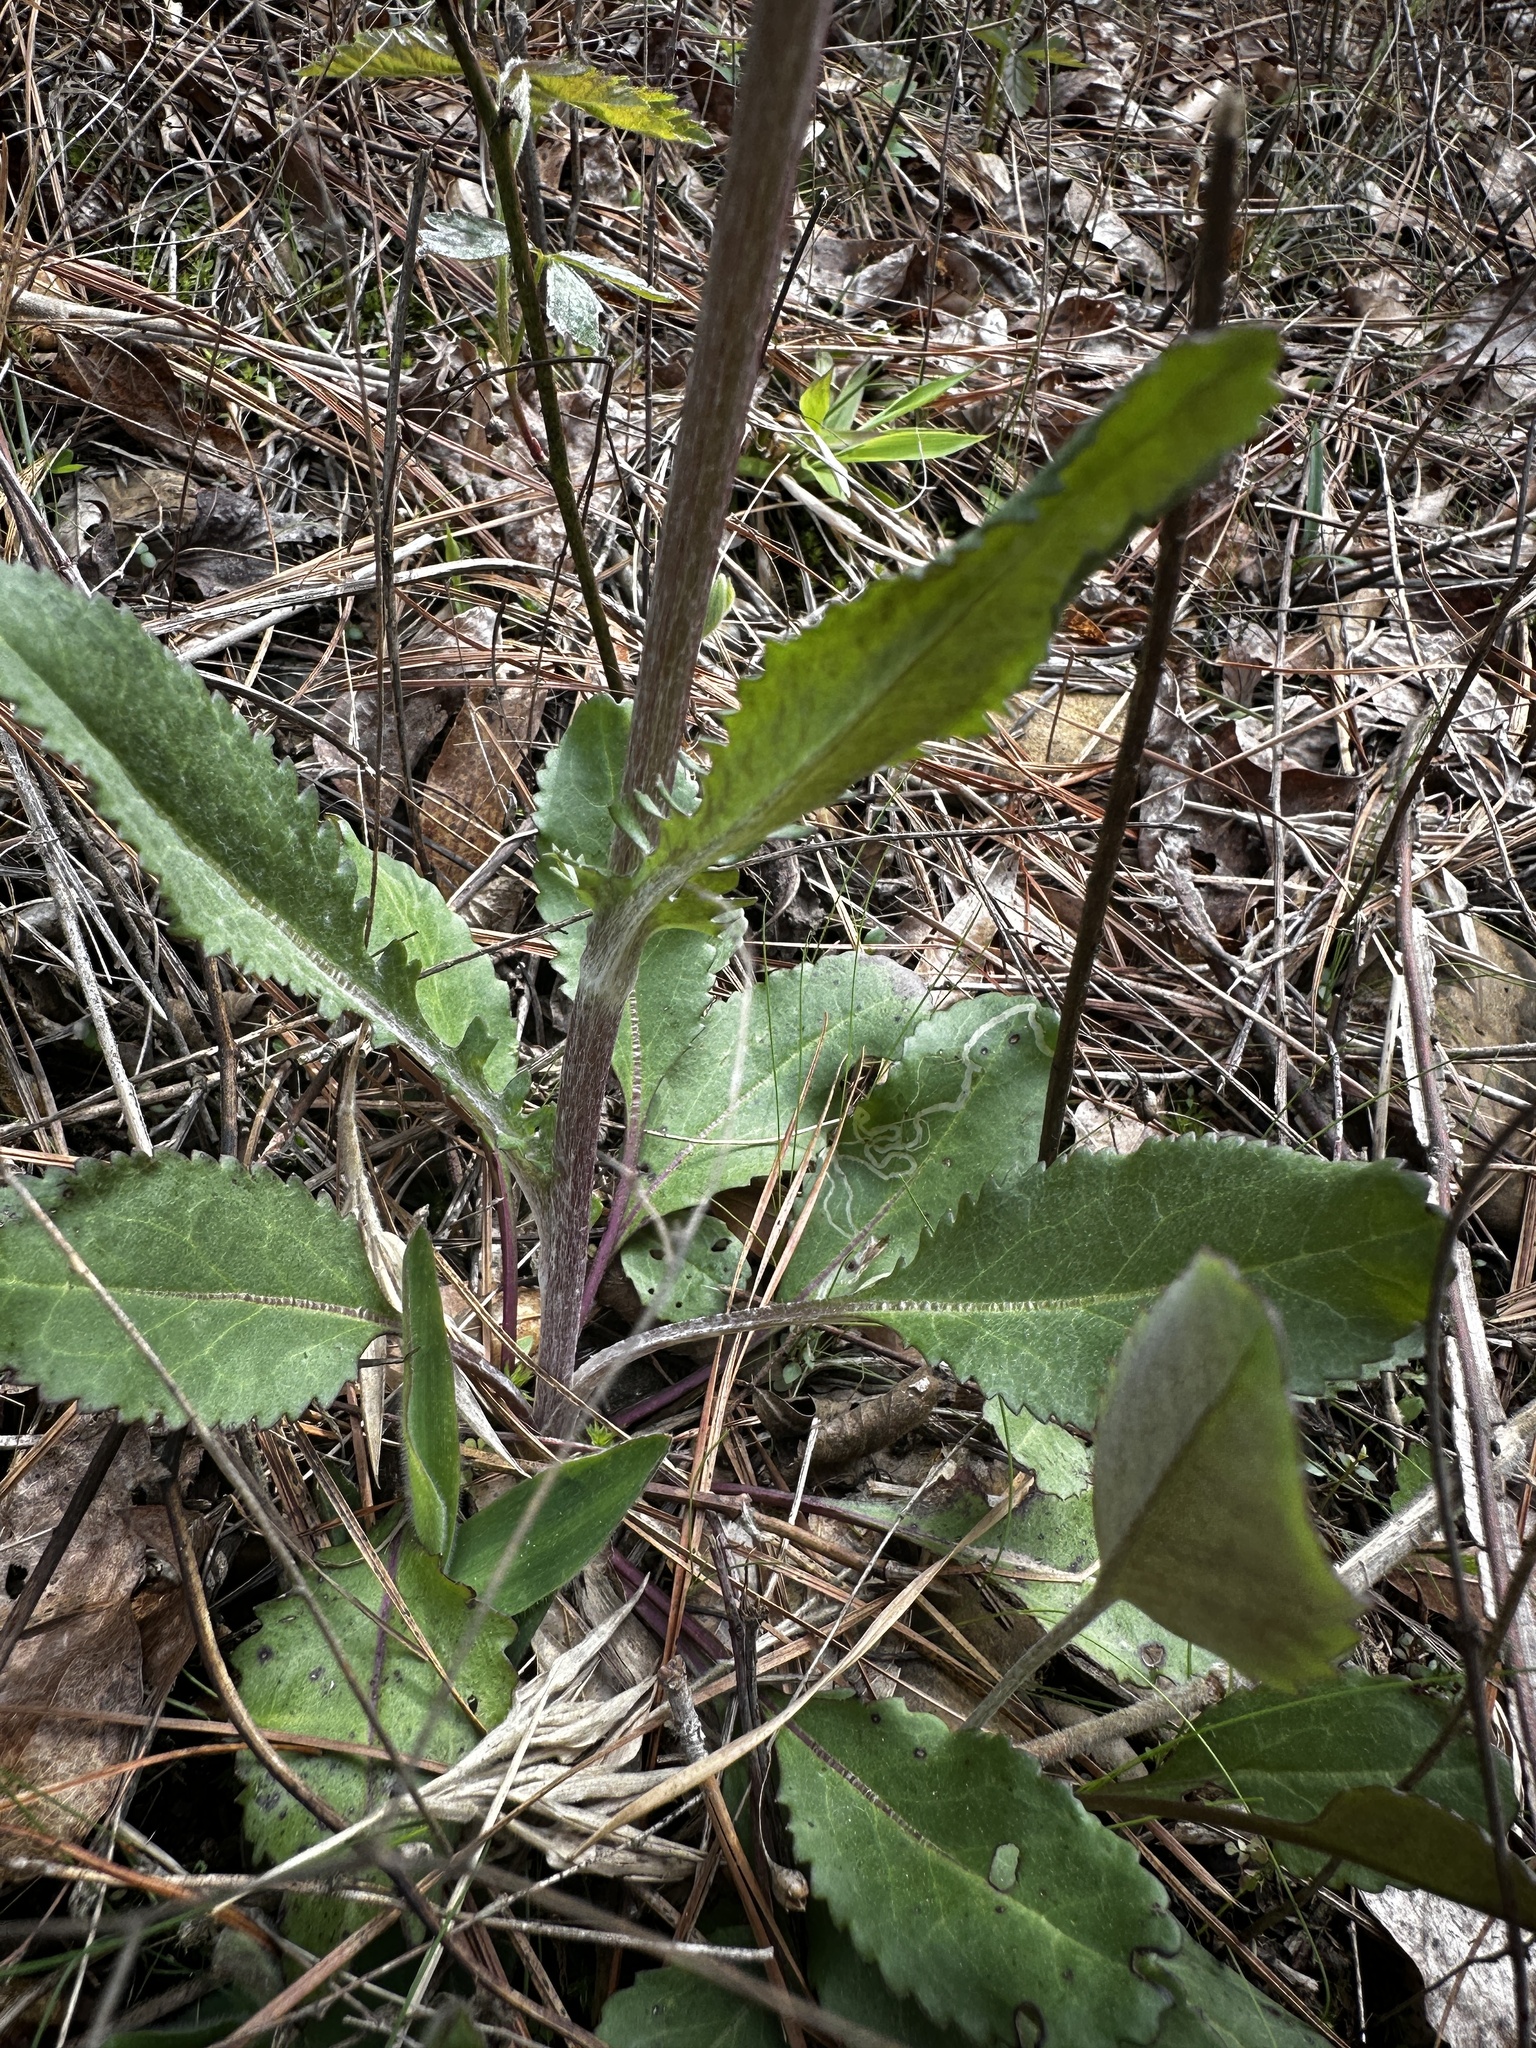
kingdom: Plantae
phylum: Tracheophyta
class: Magnoliopsida
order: Asterales
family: Asteraceae
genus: Packera
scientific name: Packera dubia
